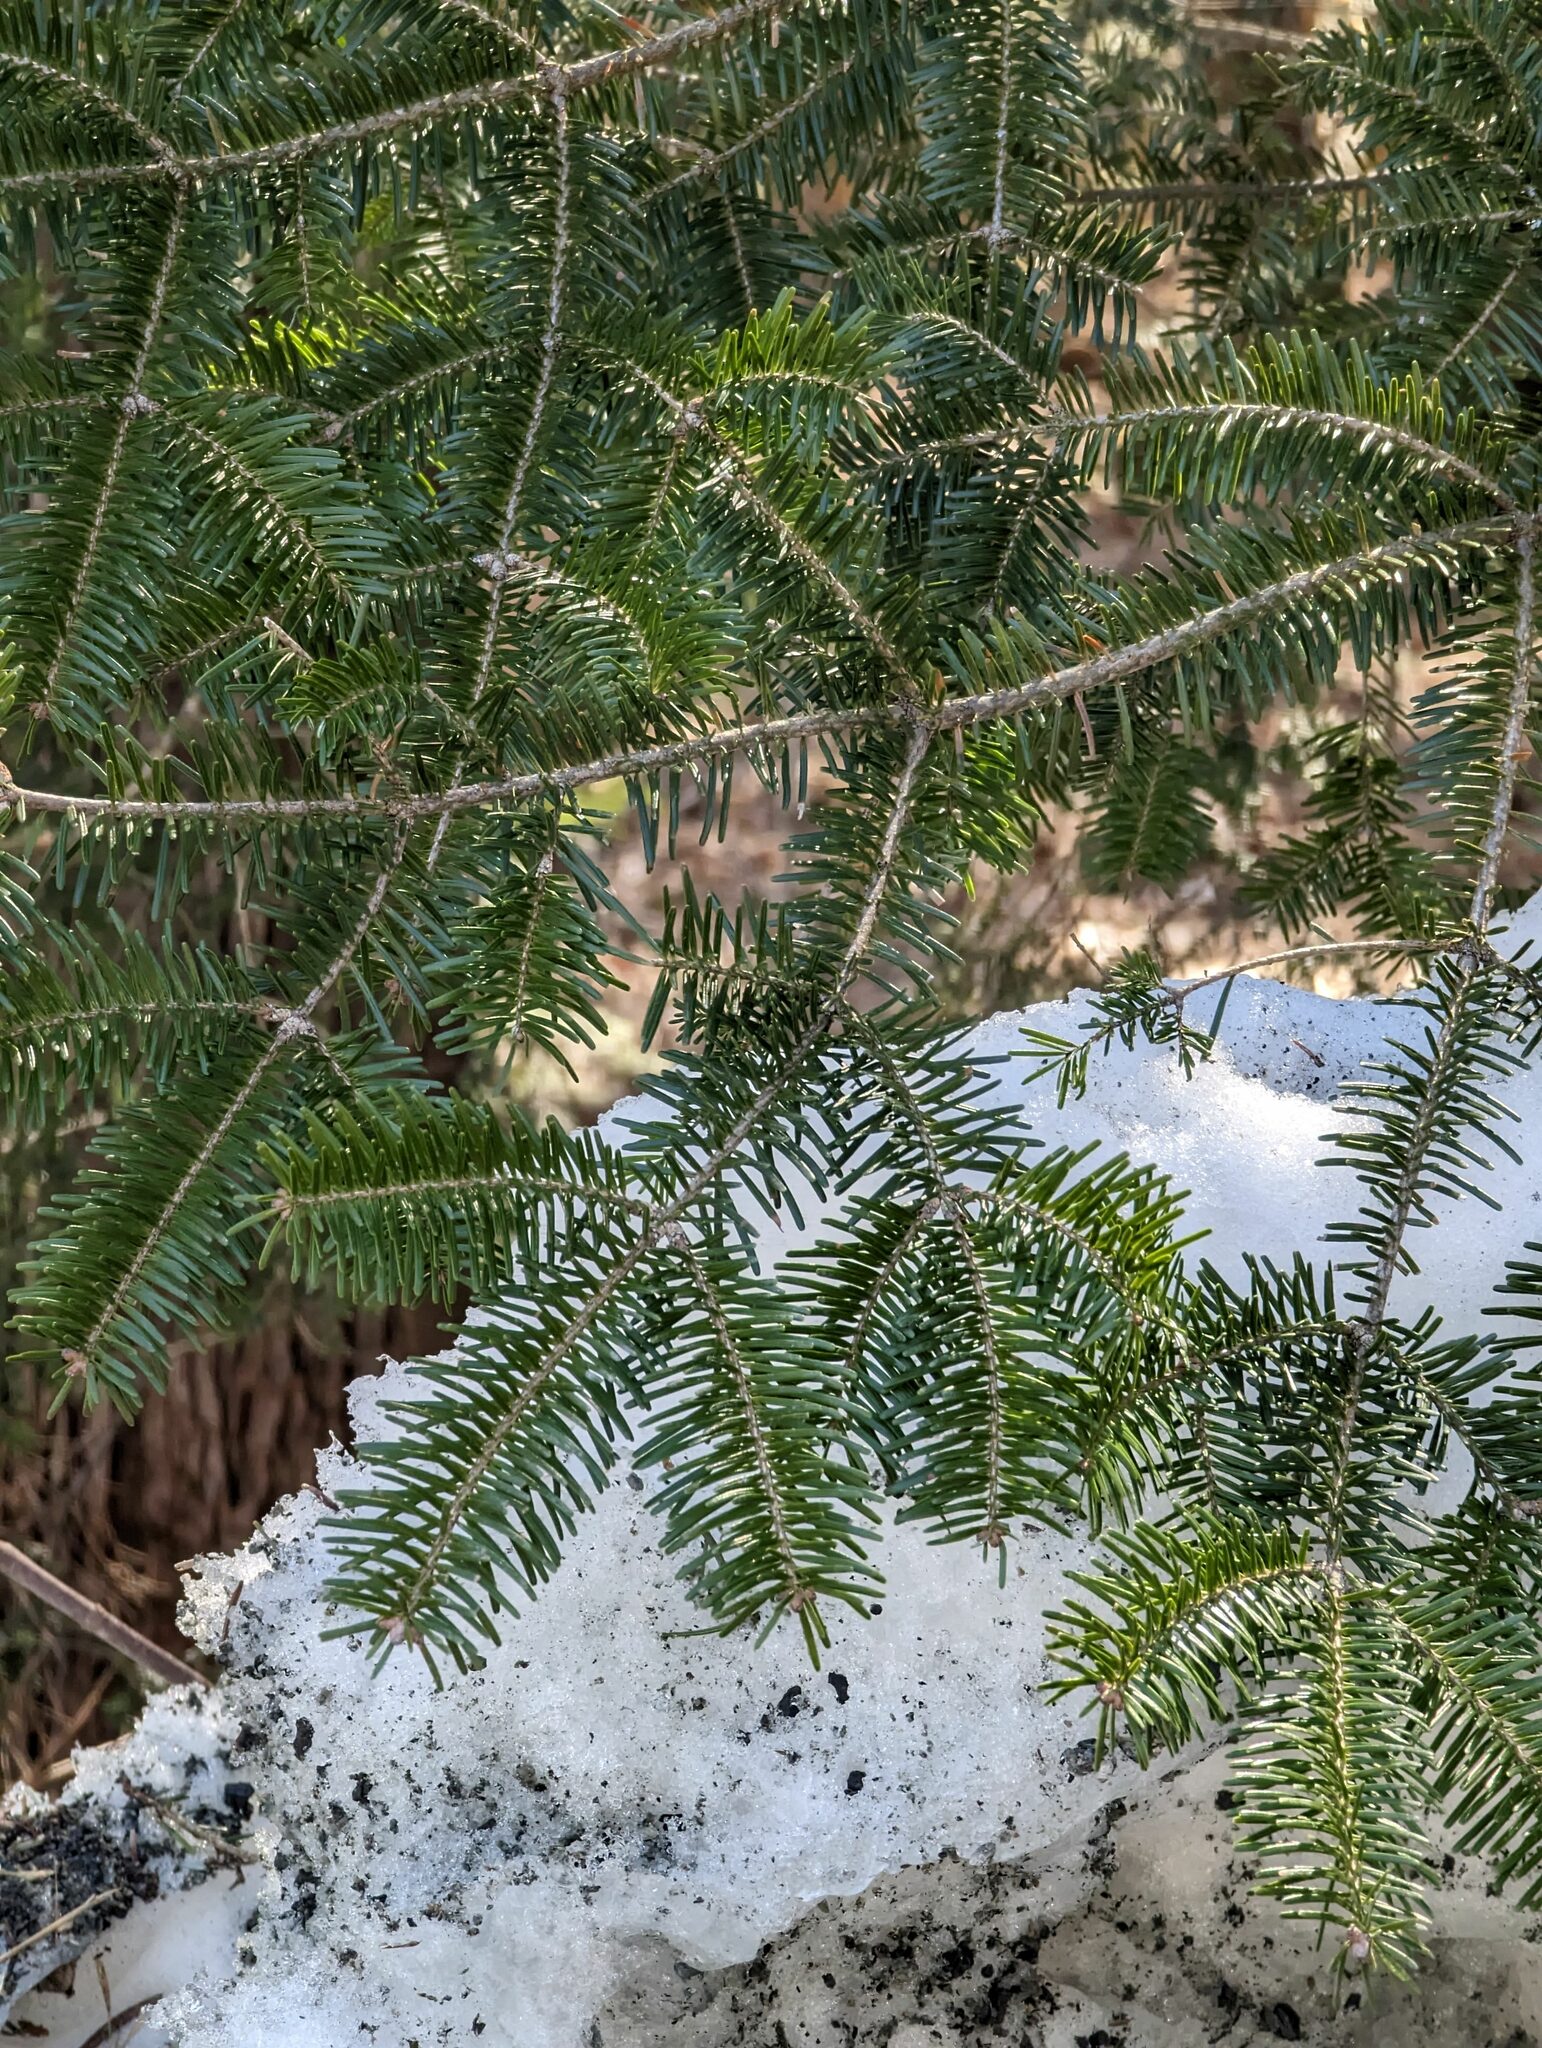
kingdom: Plantae
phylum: Tracheophyta
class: Pinopsida
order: Pinales
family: Pinaceae
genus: Abies
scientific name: Abies balsamea
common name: Balsam fir
